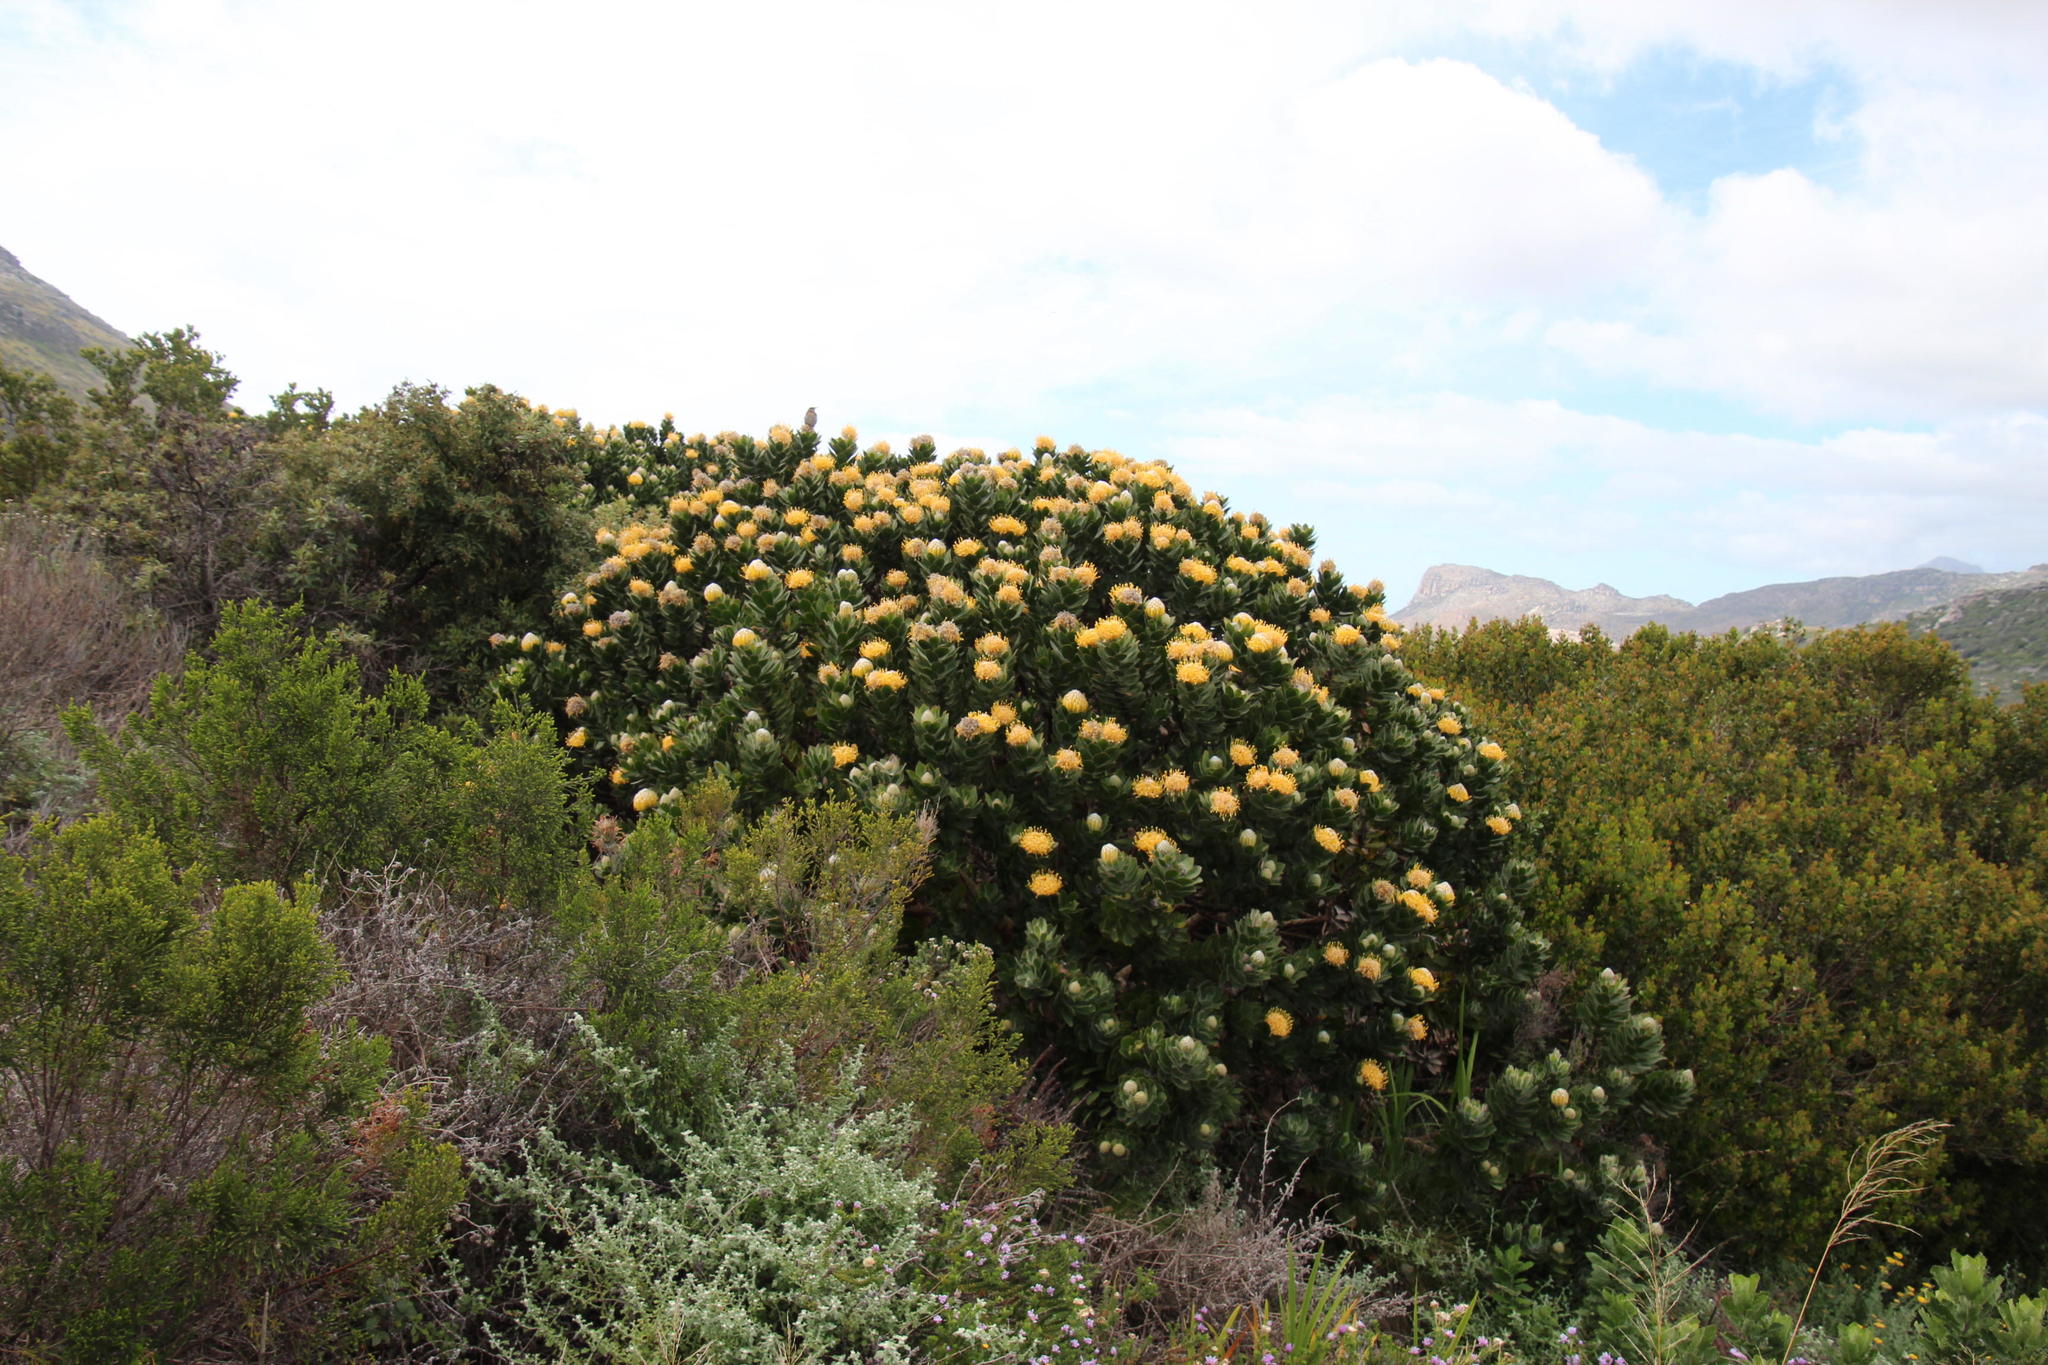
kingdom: Animalia
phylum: Chordata
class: Aves
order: Passeriformes
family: Promeropidae
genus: Promerops
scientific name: Promerops cafer
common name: Cape sugarbird
